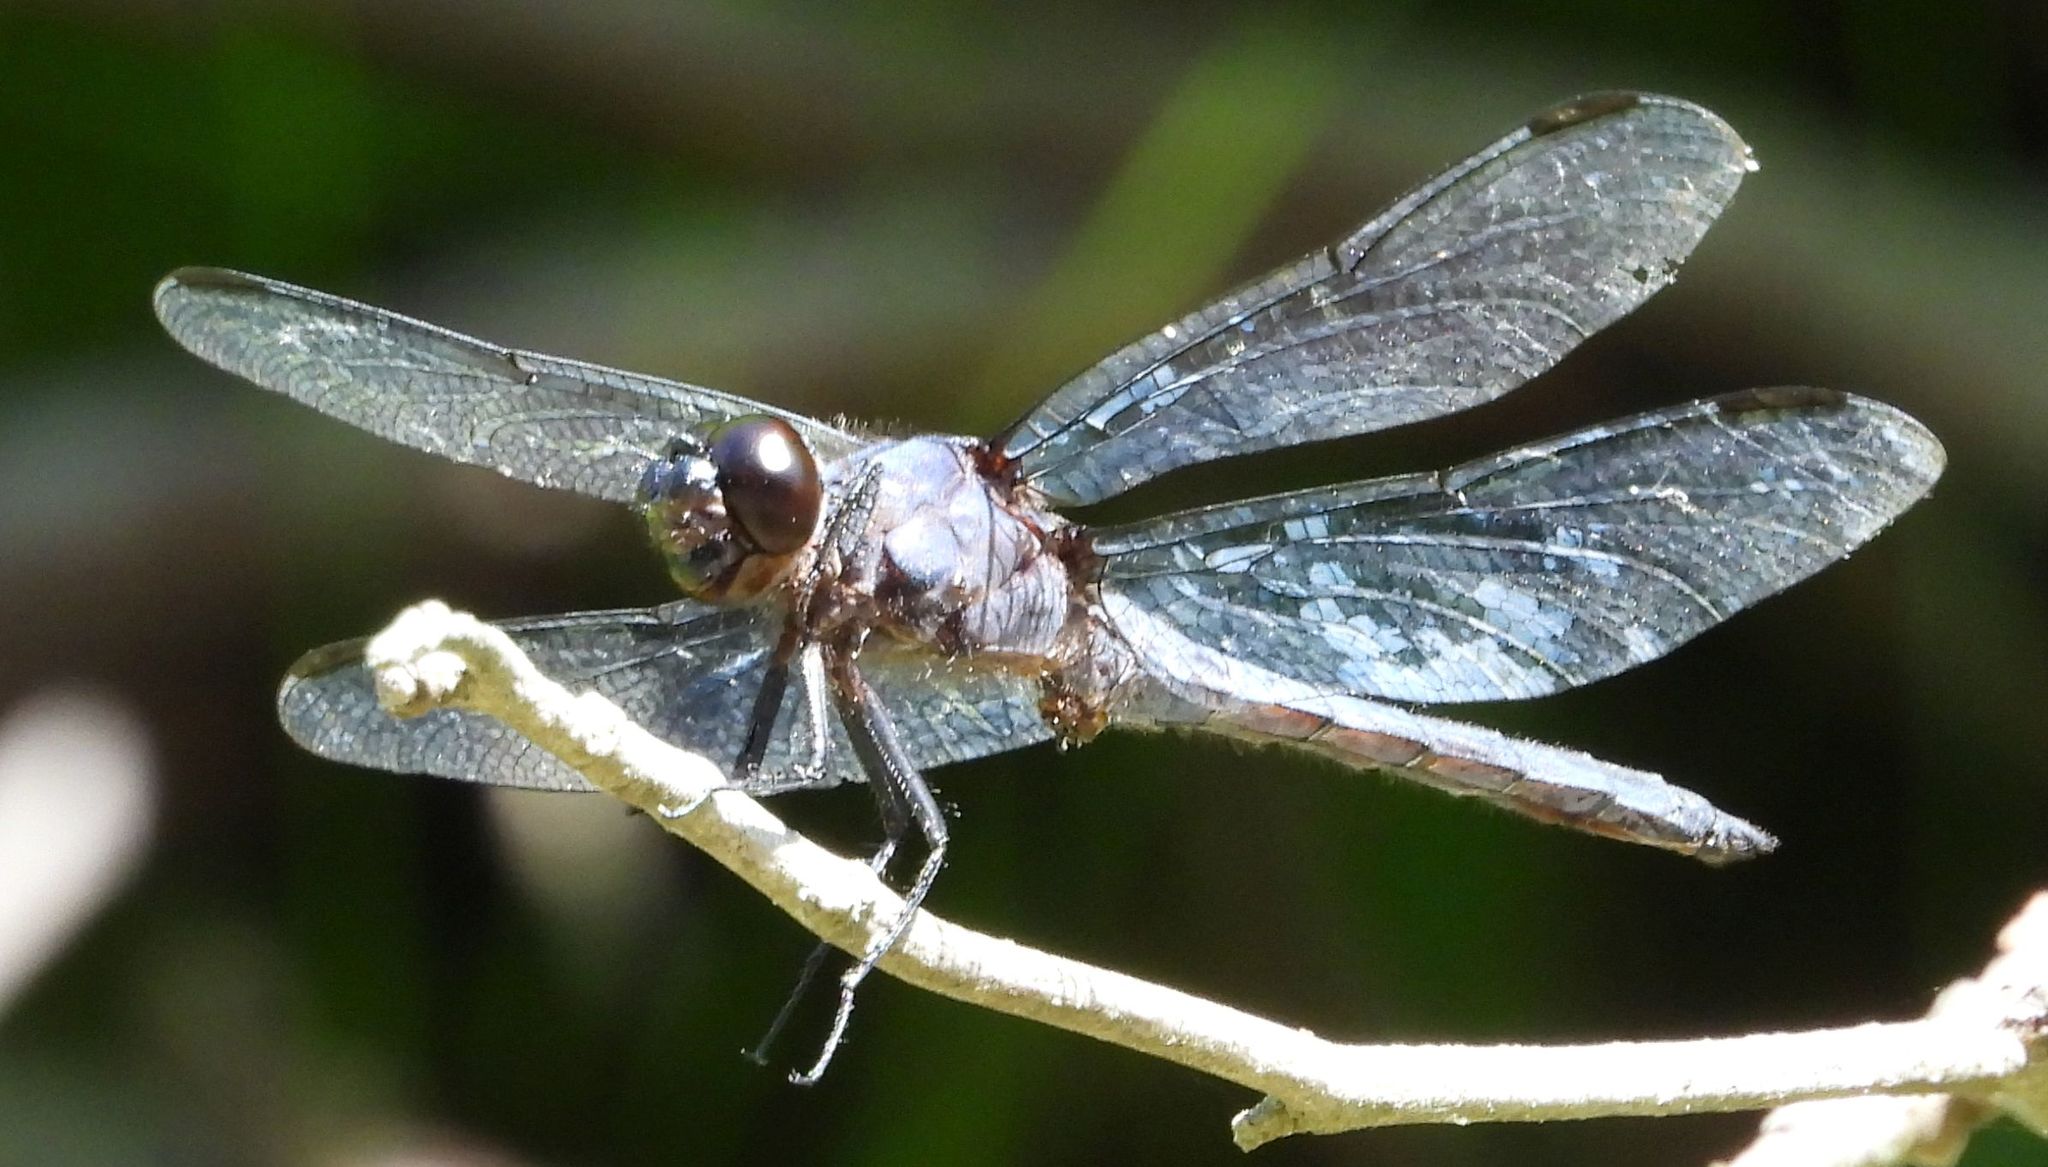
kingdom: Animalia
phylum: Arthropoda
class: Insecta
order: Odonata
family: Libellulidae
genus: Libellula
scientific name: Libellula incesta
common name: Slaty skimmer
